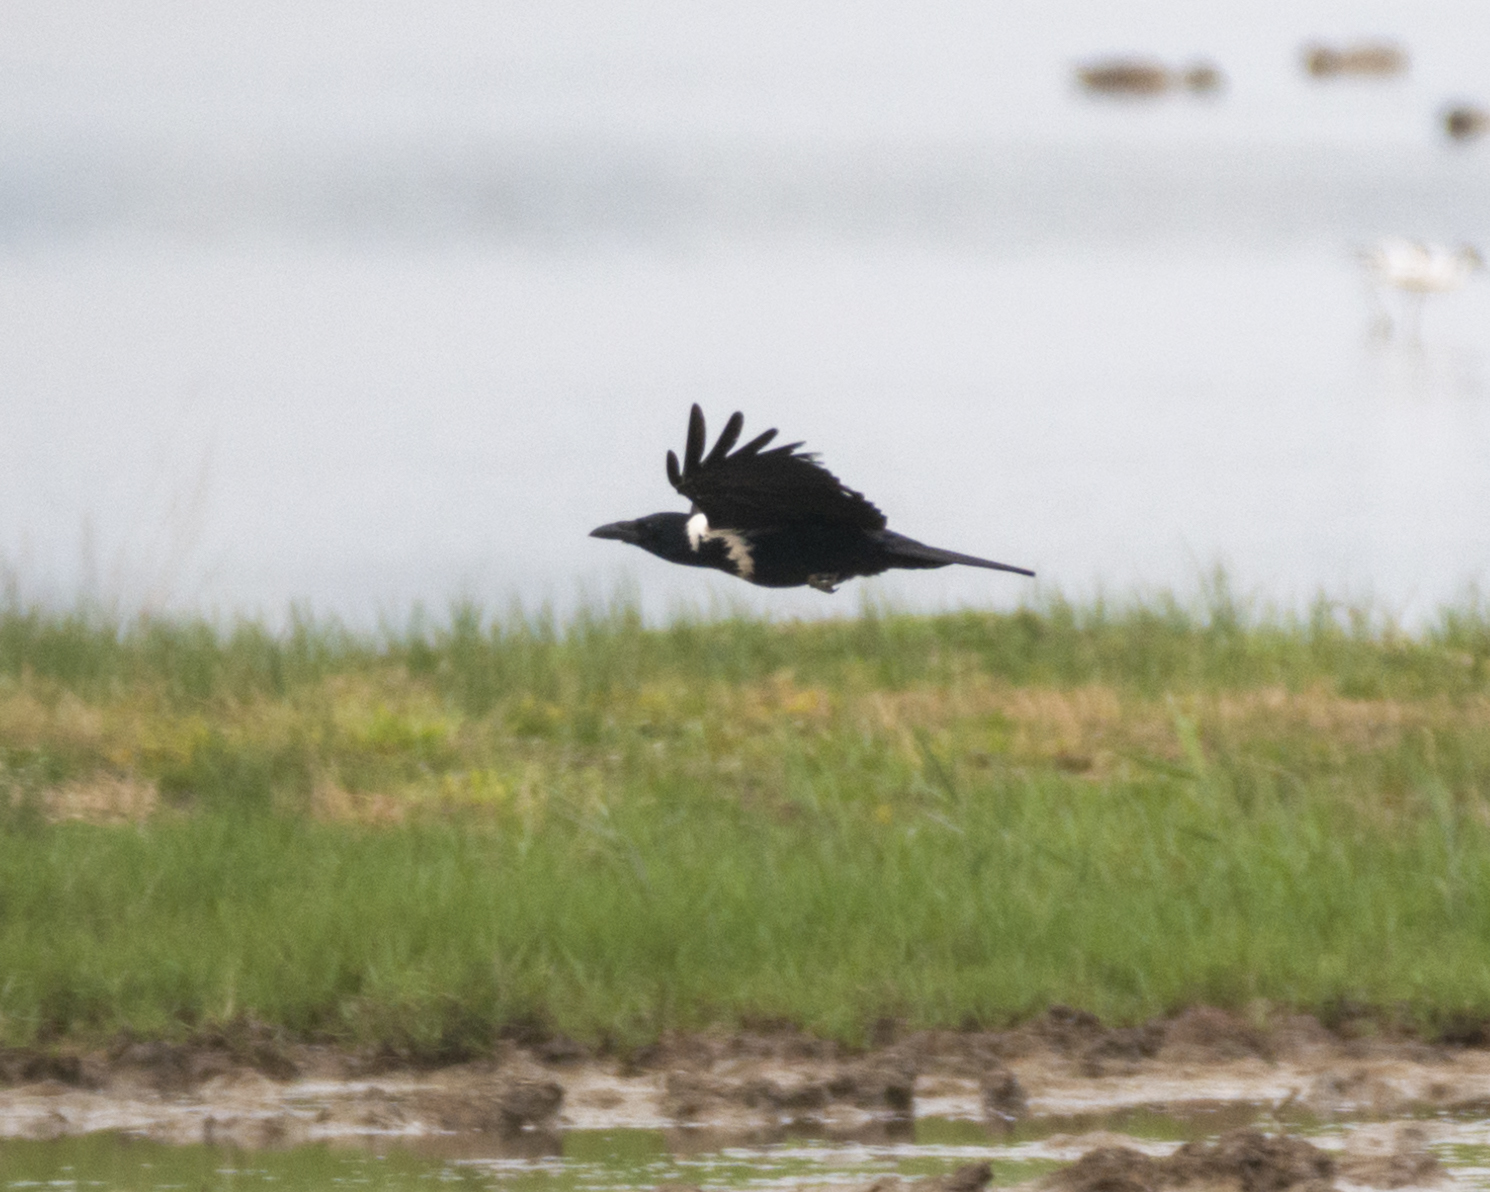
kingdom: Animalia
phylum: Chordata
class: Aves
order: Passeriformes
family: Corvidae
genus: Corvus
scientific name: Corvus pectoralis
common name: Collared crow
